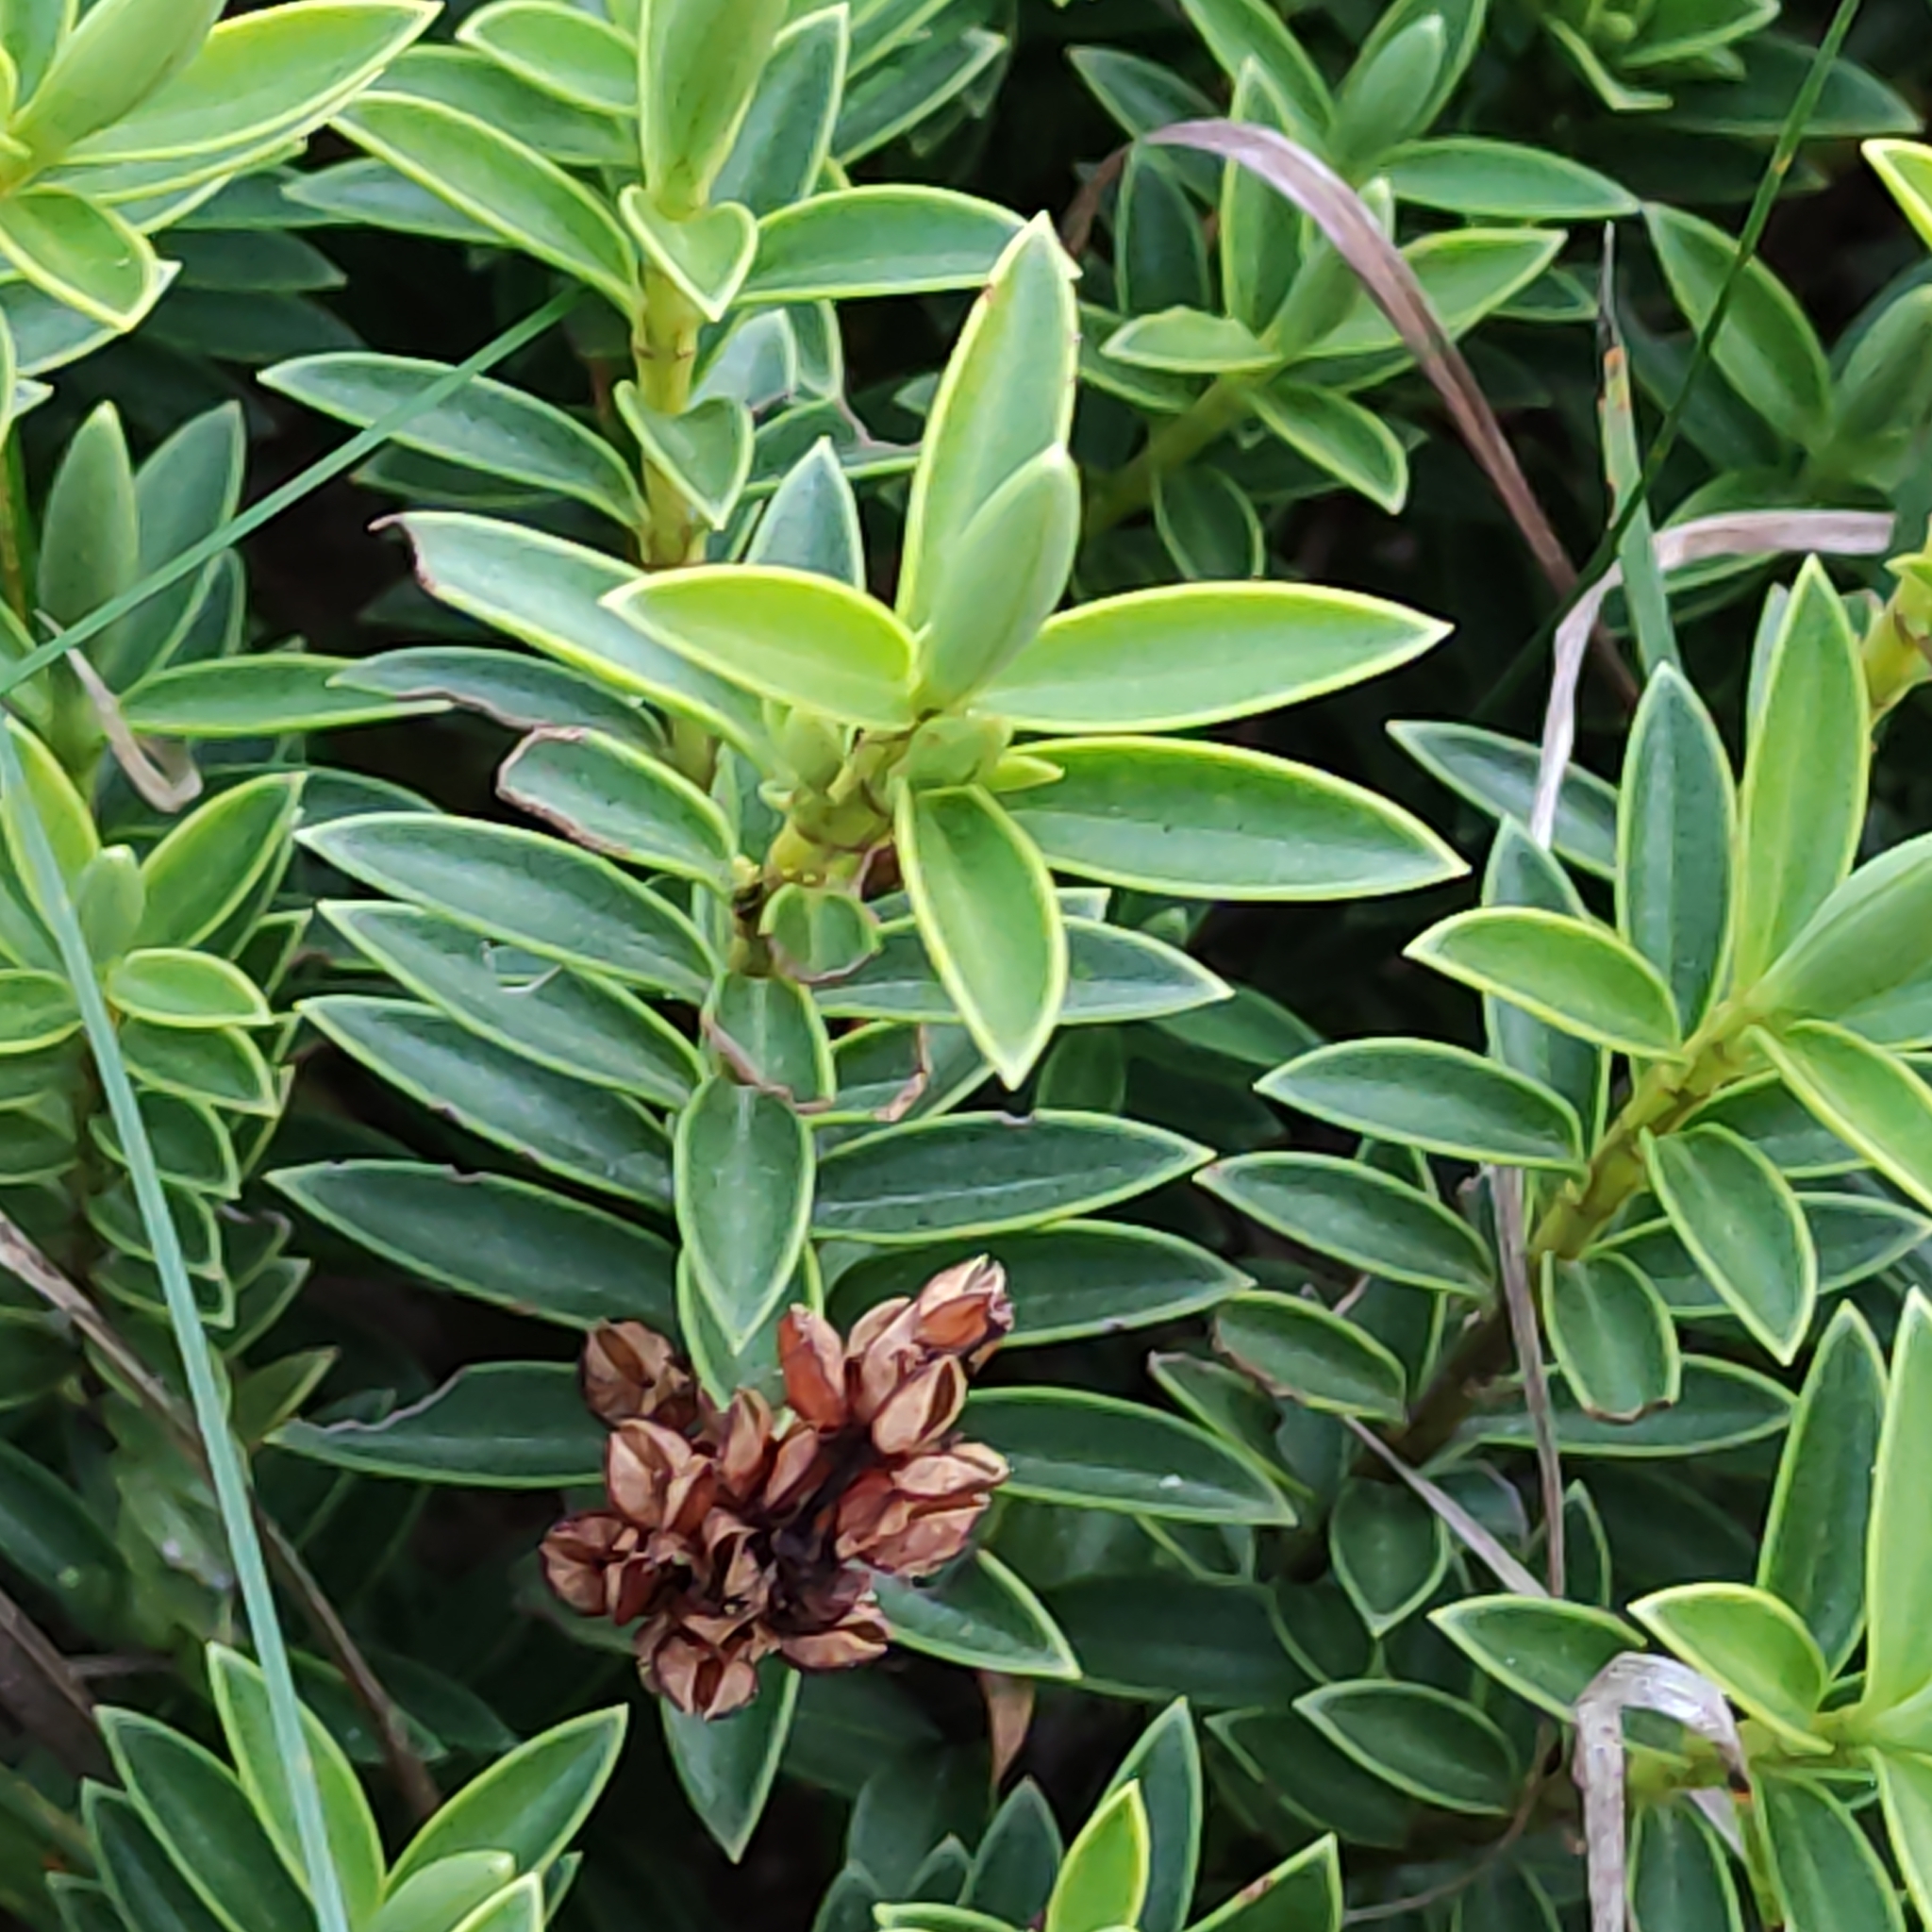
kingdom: Plantae
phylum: Tracheophyta
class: Magnoliopsida
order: Lamiales
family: Plantaginaceae
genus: Veronica
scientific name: Veronica rakaiensis
